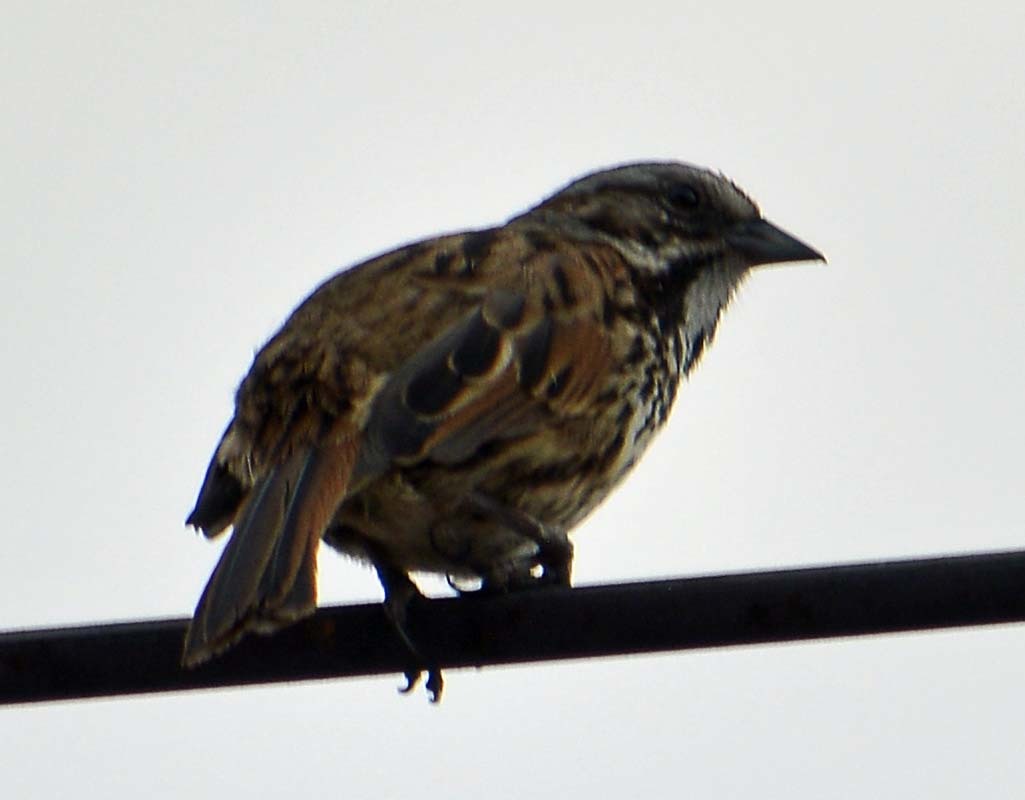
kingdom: Animalia
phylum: Chordata
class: Aves
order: Passeriformes
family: Passerellidae
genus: Melospiza
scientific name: Melospiza melodia
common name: Song sparrow
